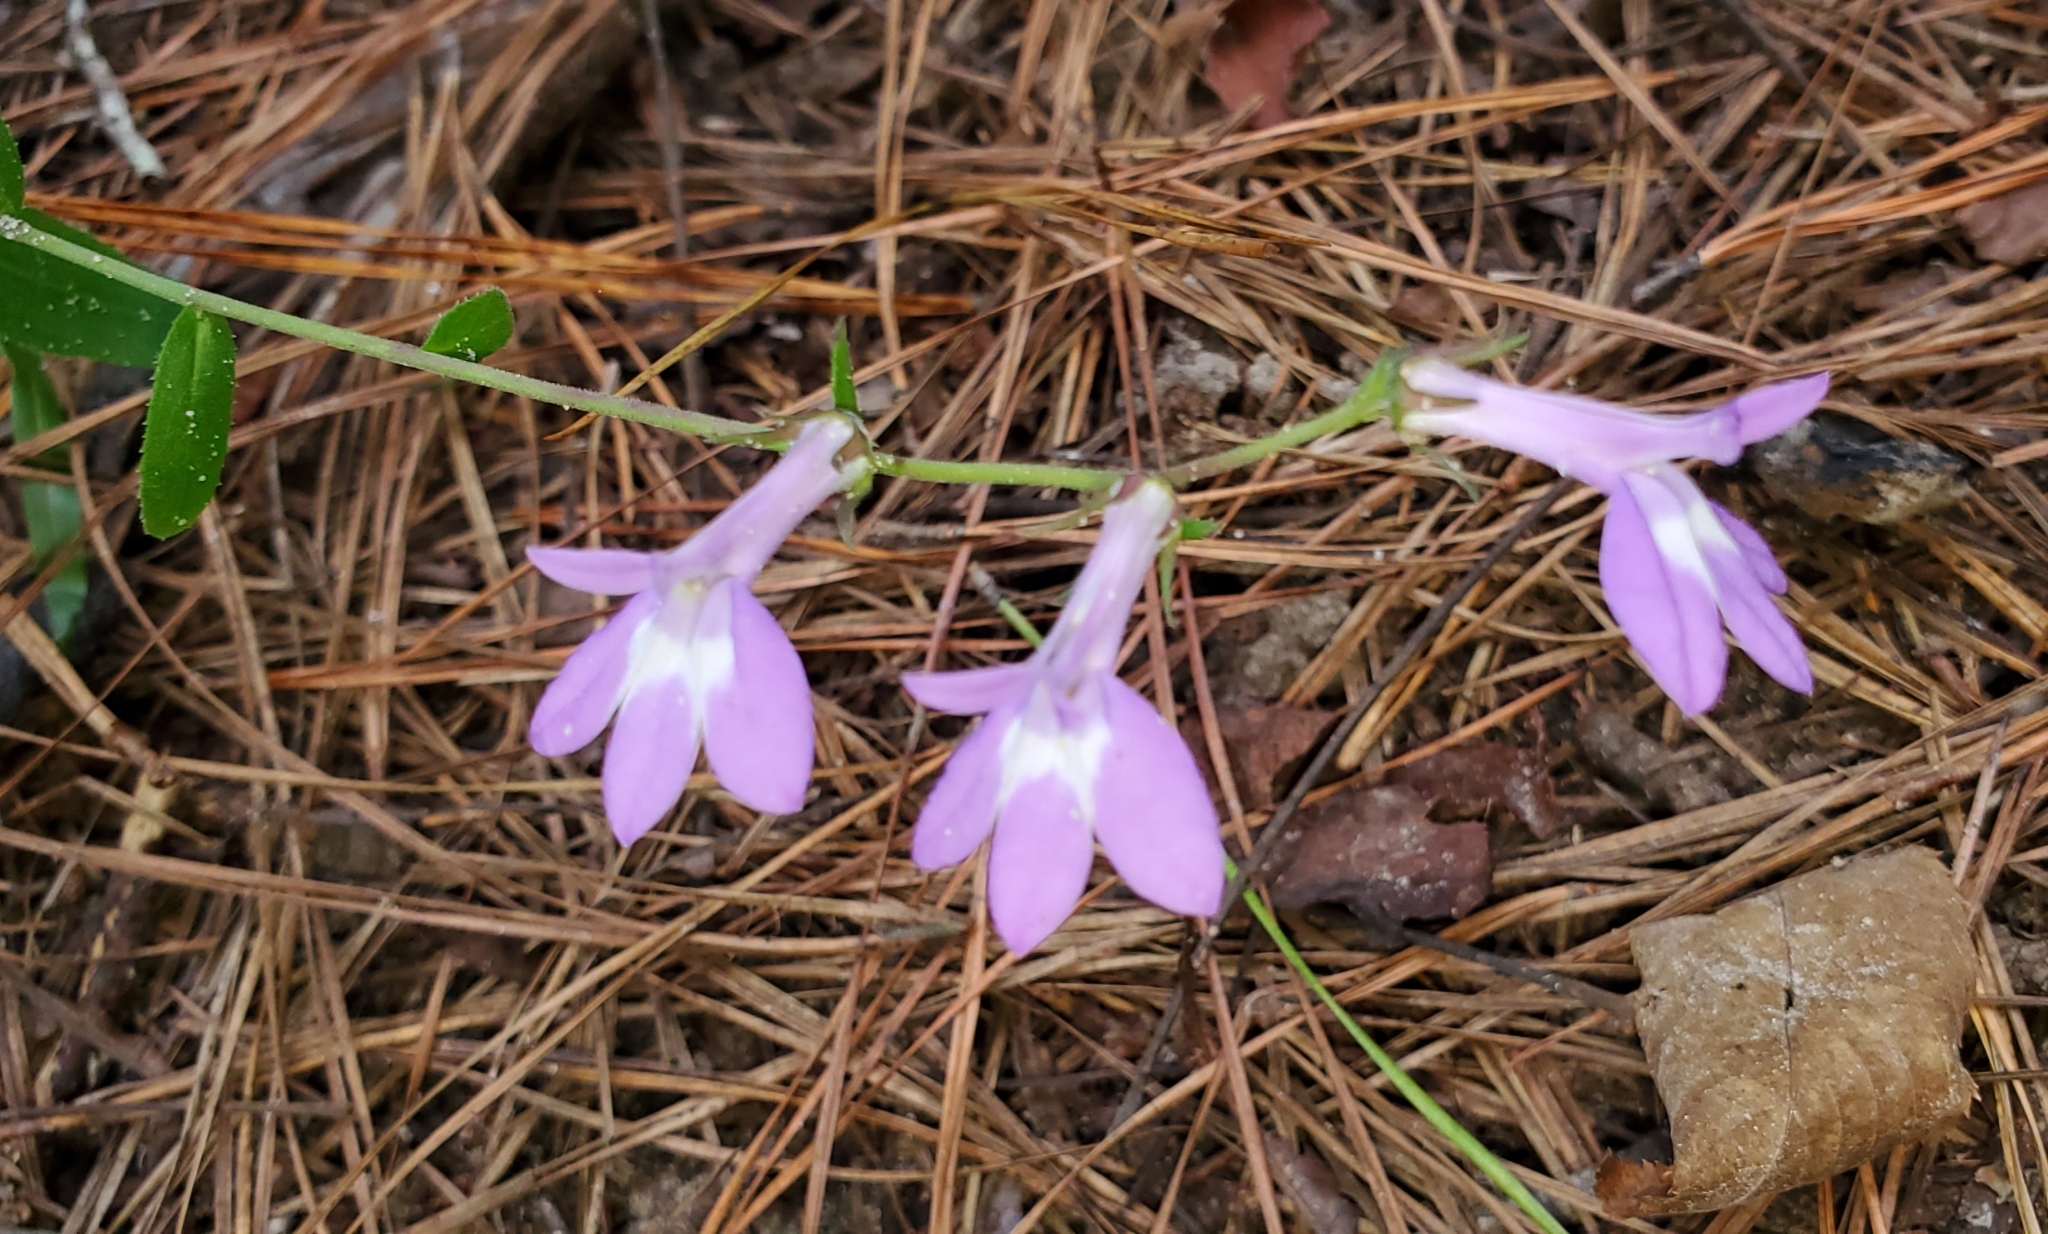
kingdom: Plantae
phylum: Tracheophyta
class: Magnoliopsida
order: Asterales
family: Campanulaceae
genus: Lobelia
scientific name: Lobelia puberula
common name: Purple dewdrop
